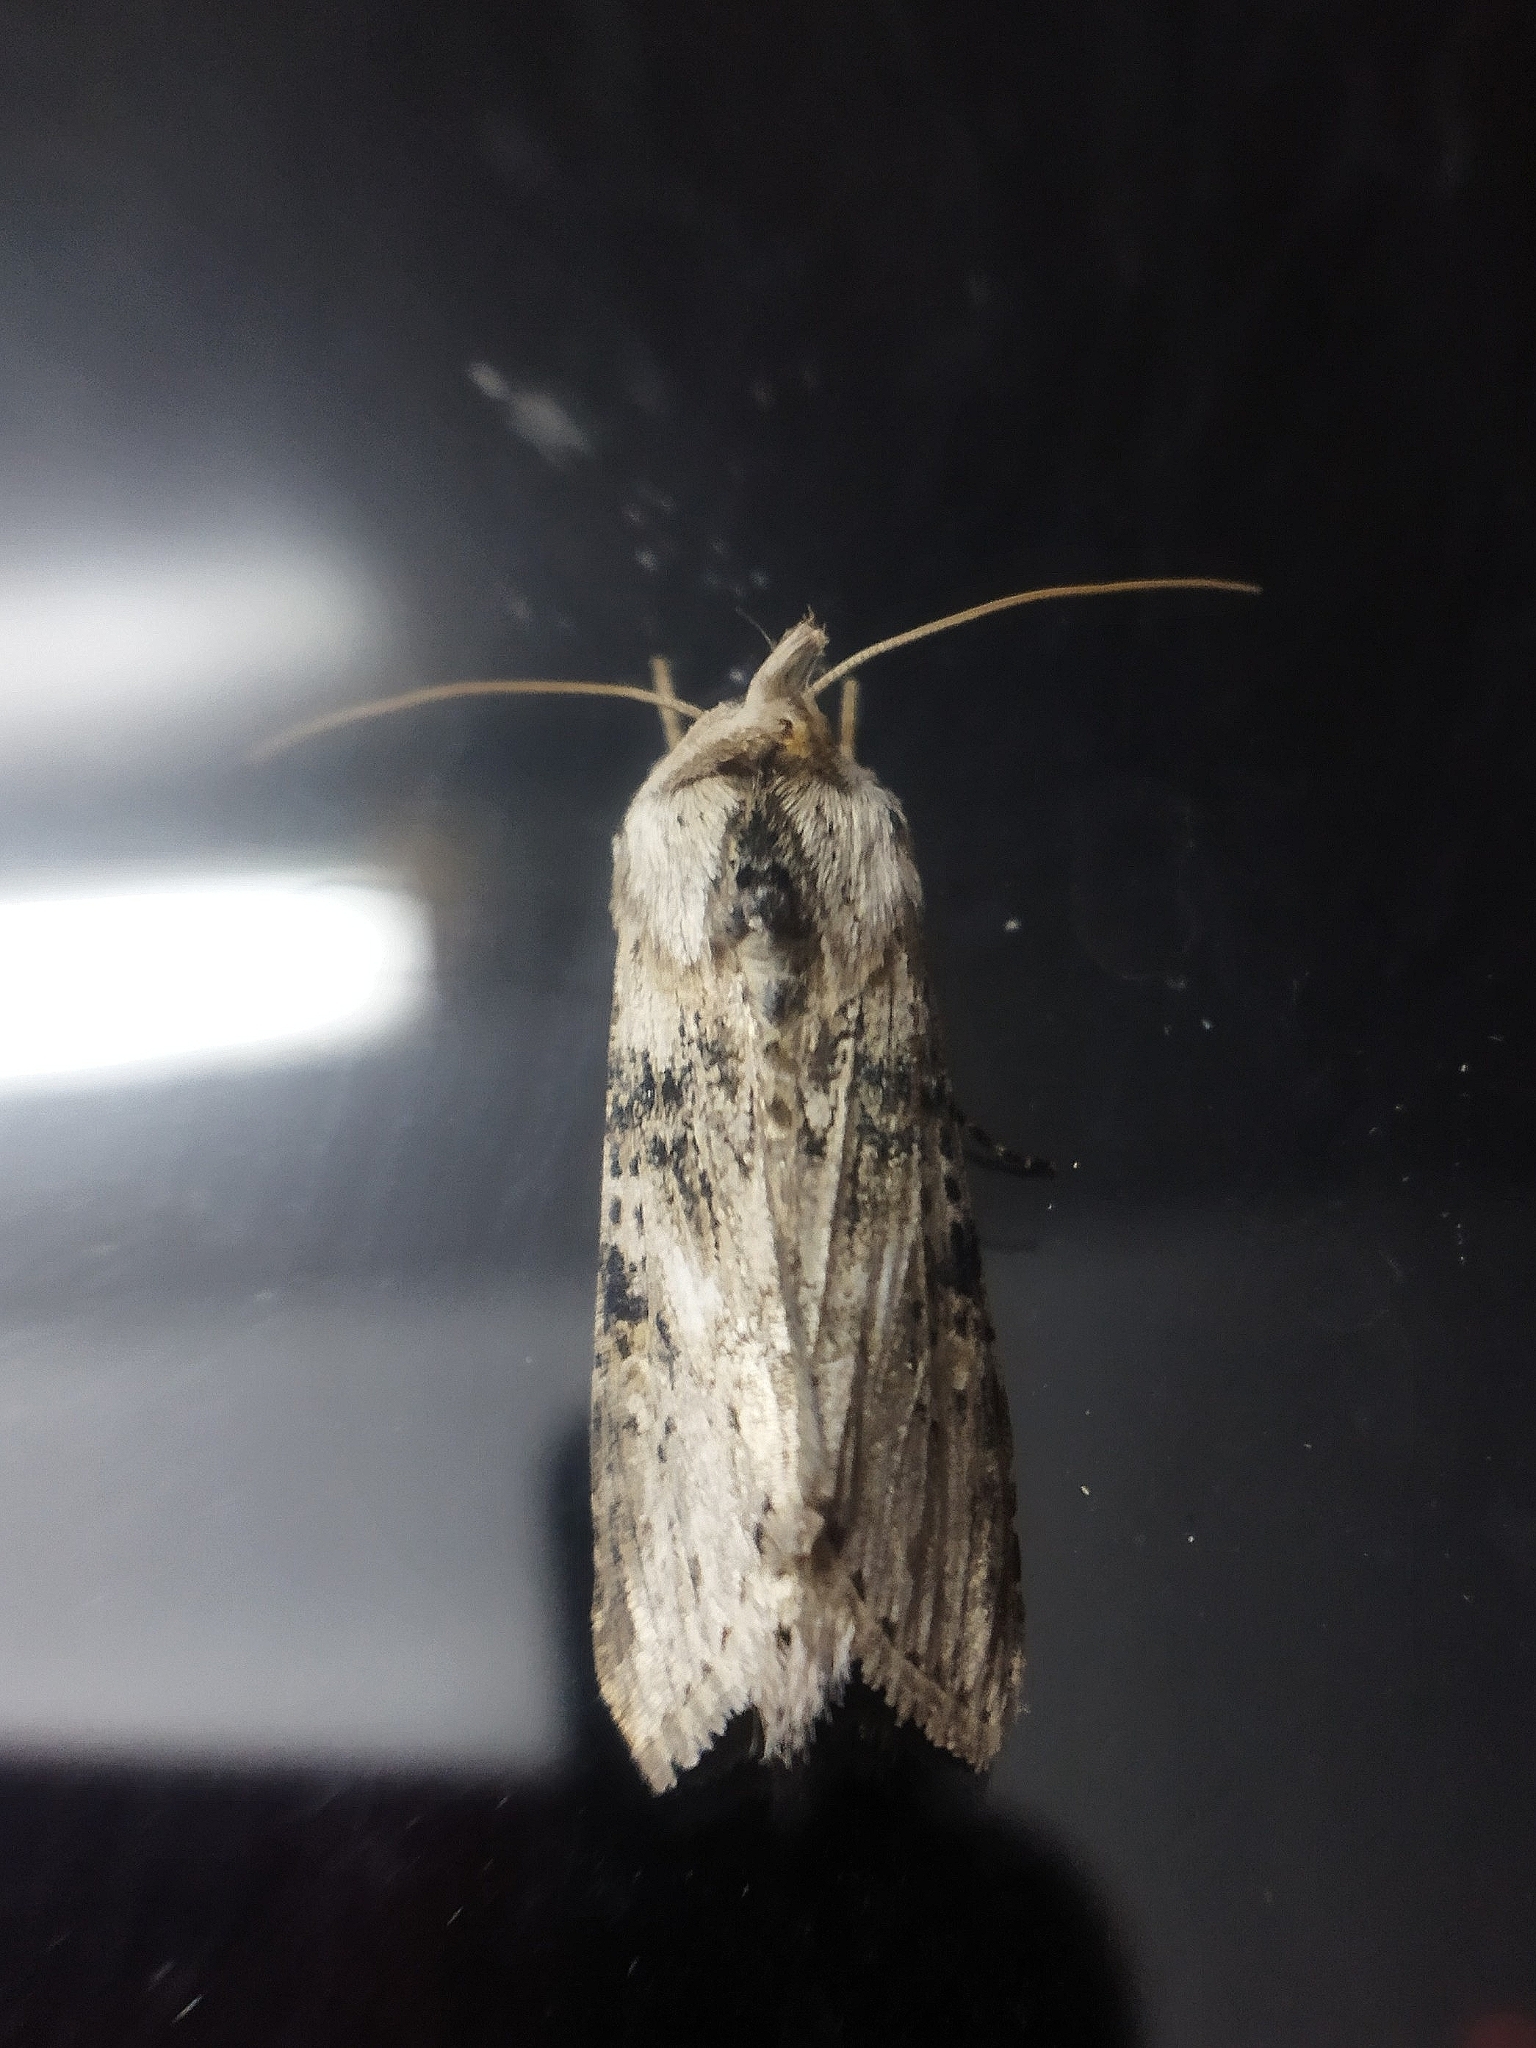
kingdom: Animalia
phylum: Arthropoda
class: Insecta
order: Lepidoptera
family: Noctuidae
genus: Cucullia
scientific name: Cucullia absinthii
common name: Wormwood
